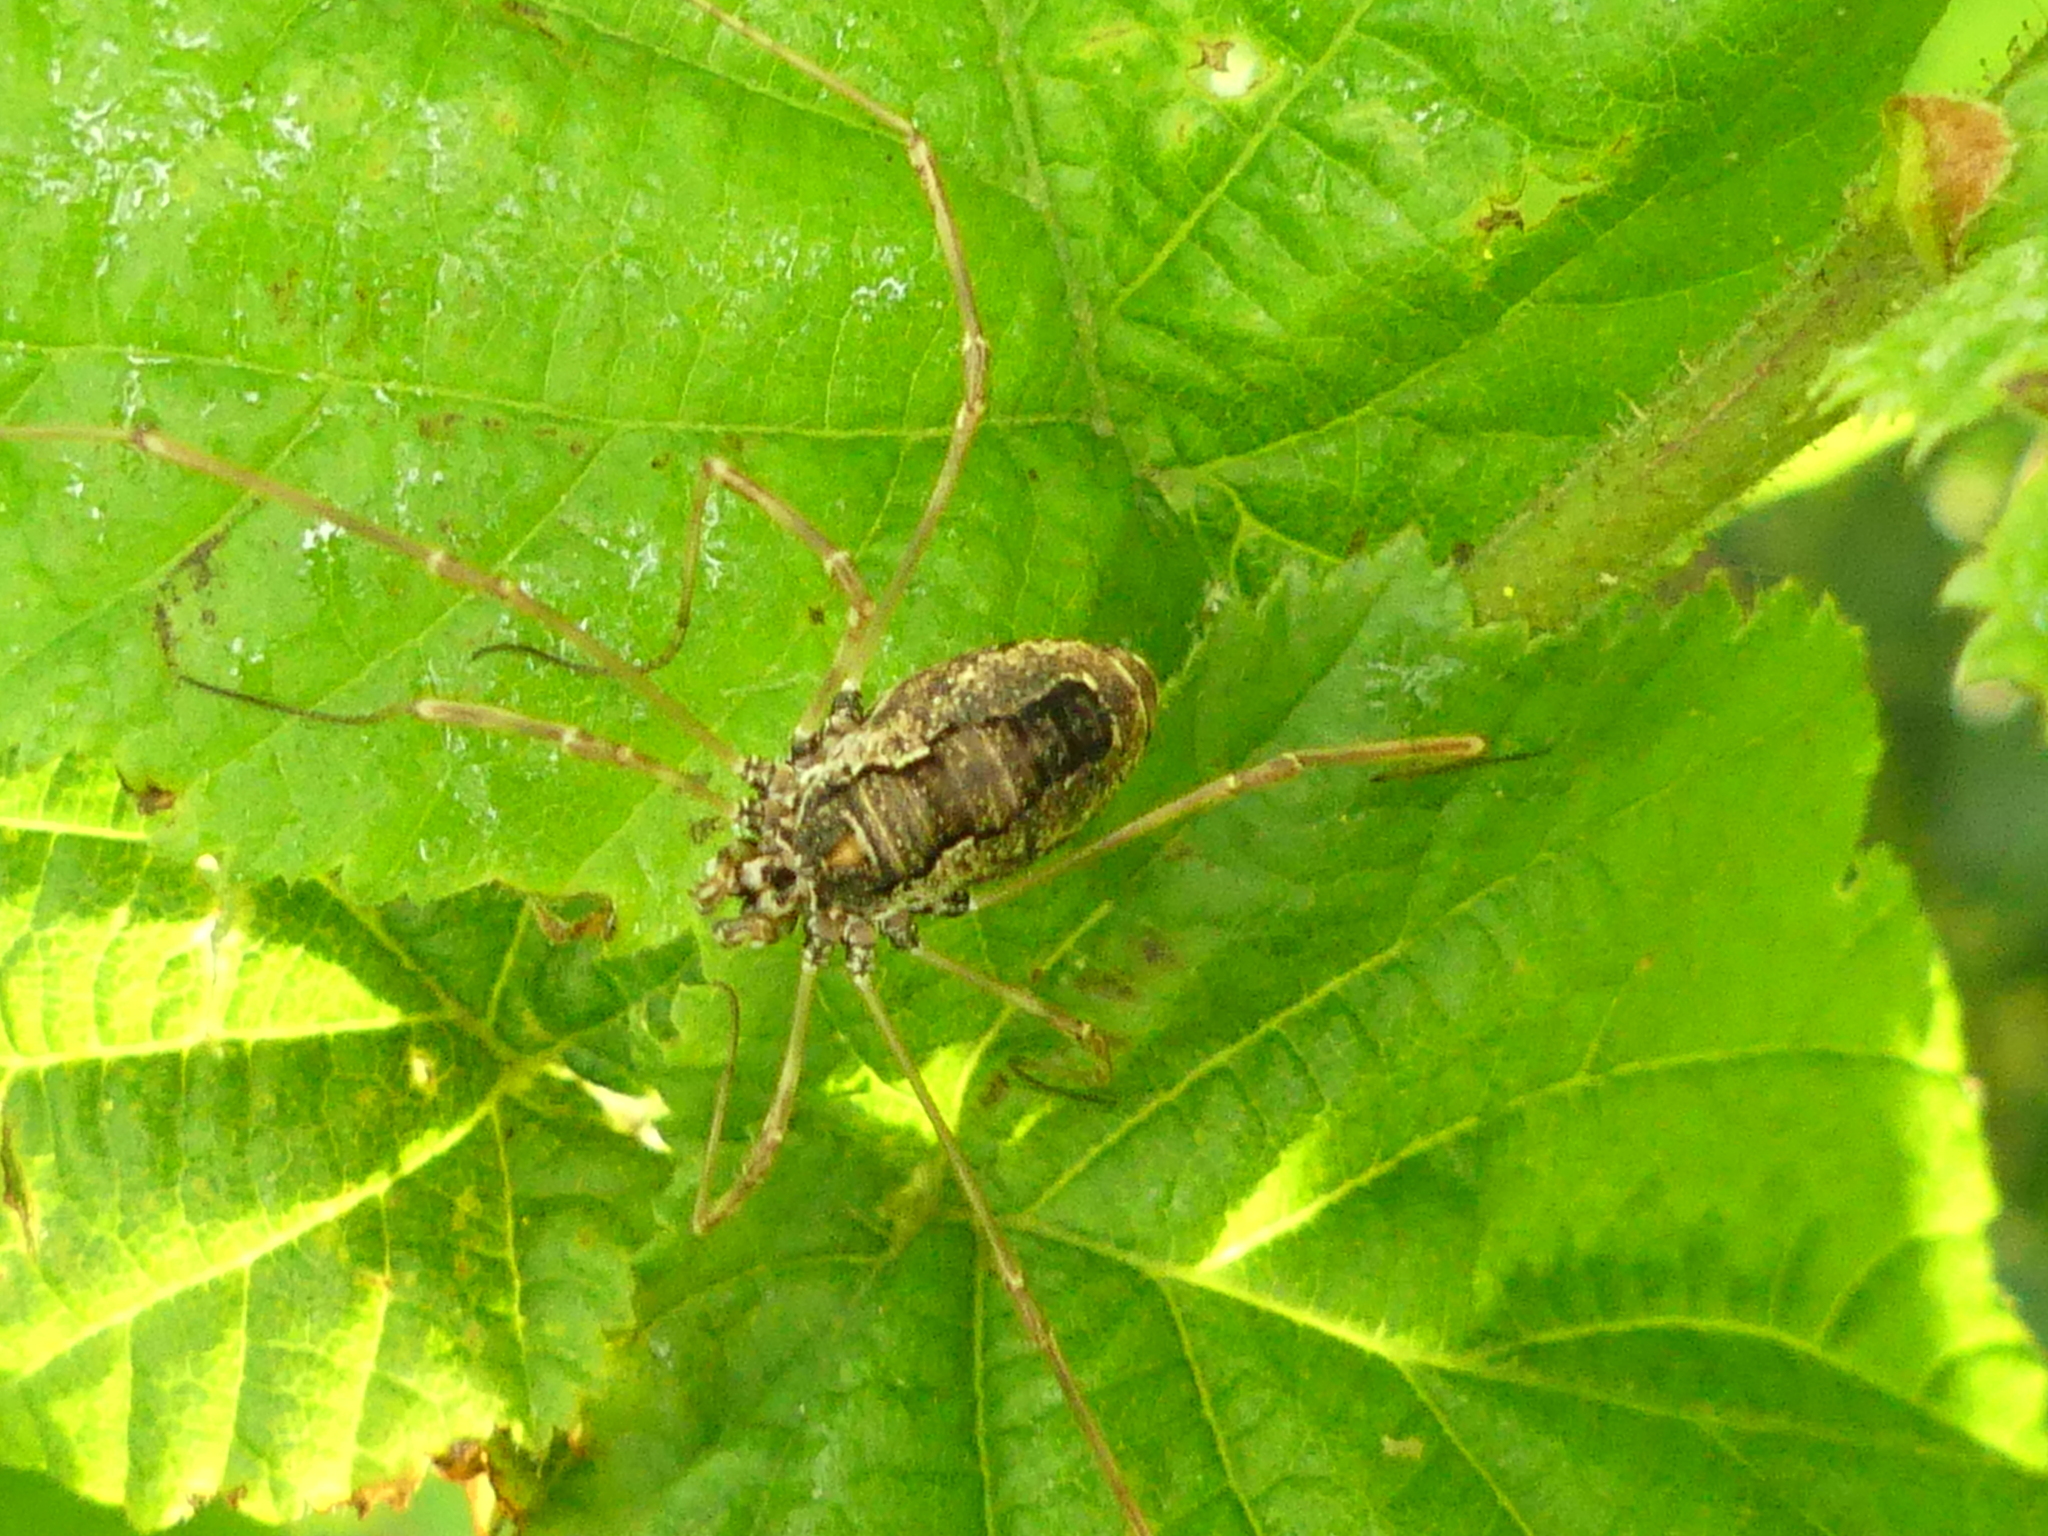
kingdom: Animalia
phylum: Arthropoda
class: Arachnida
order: Opiliones
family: Phalangiidae
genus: Platybunus
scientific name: Platybunus pinetorum
